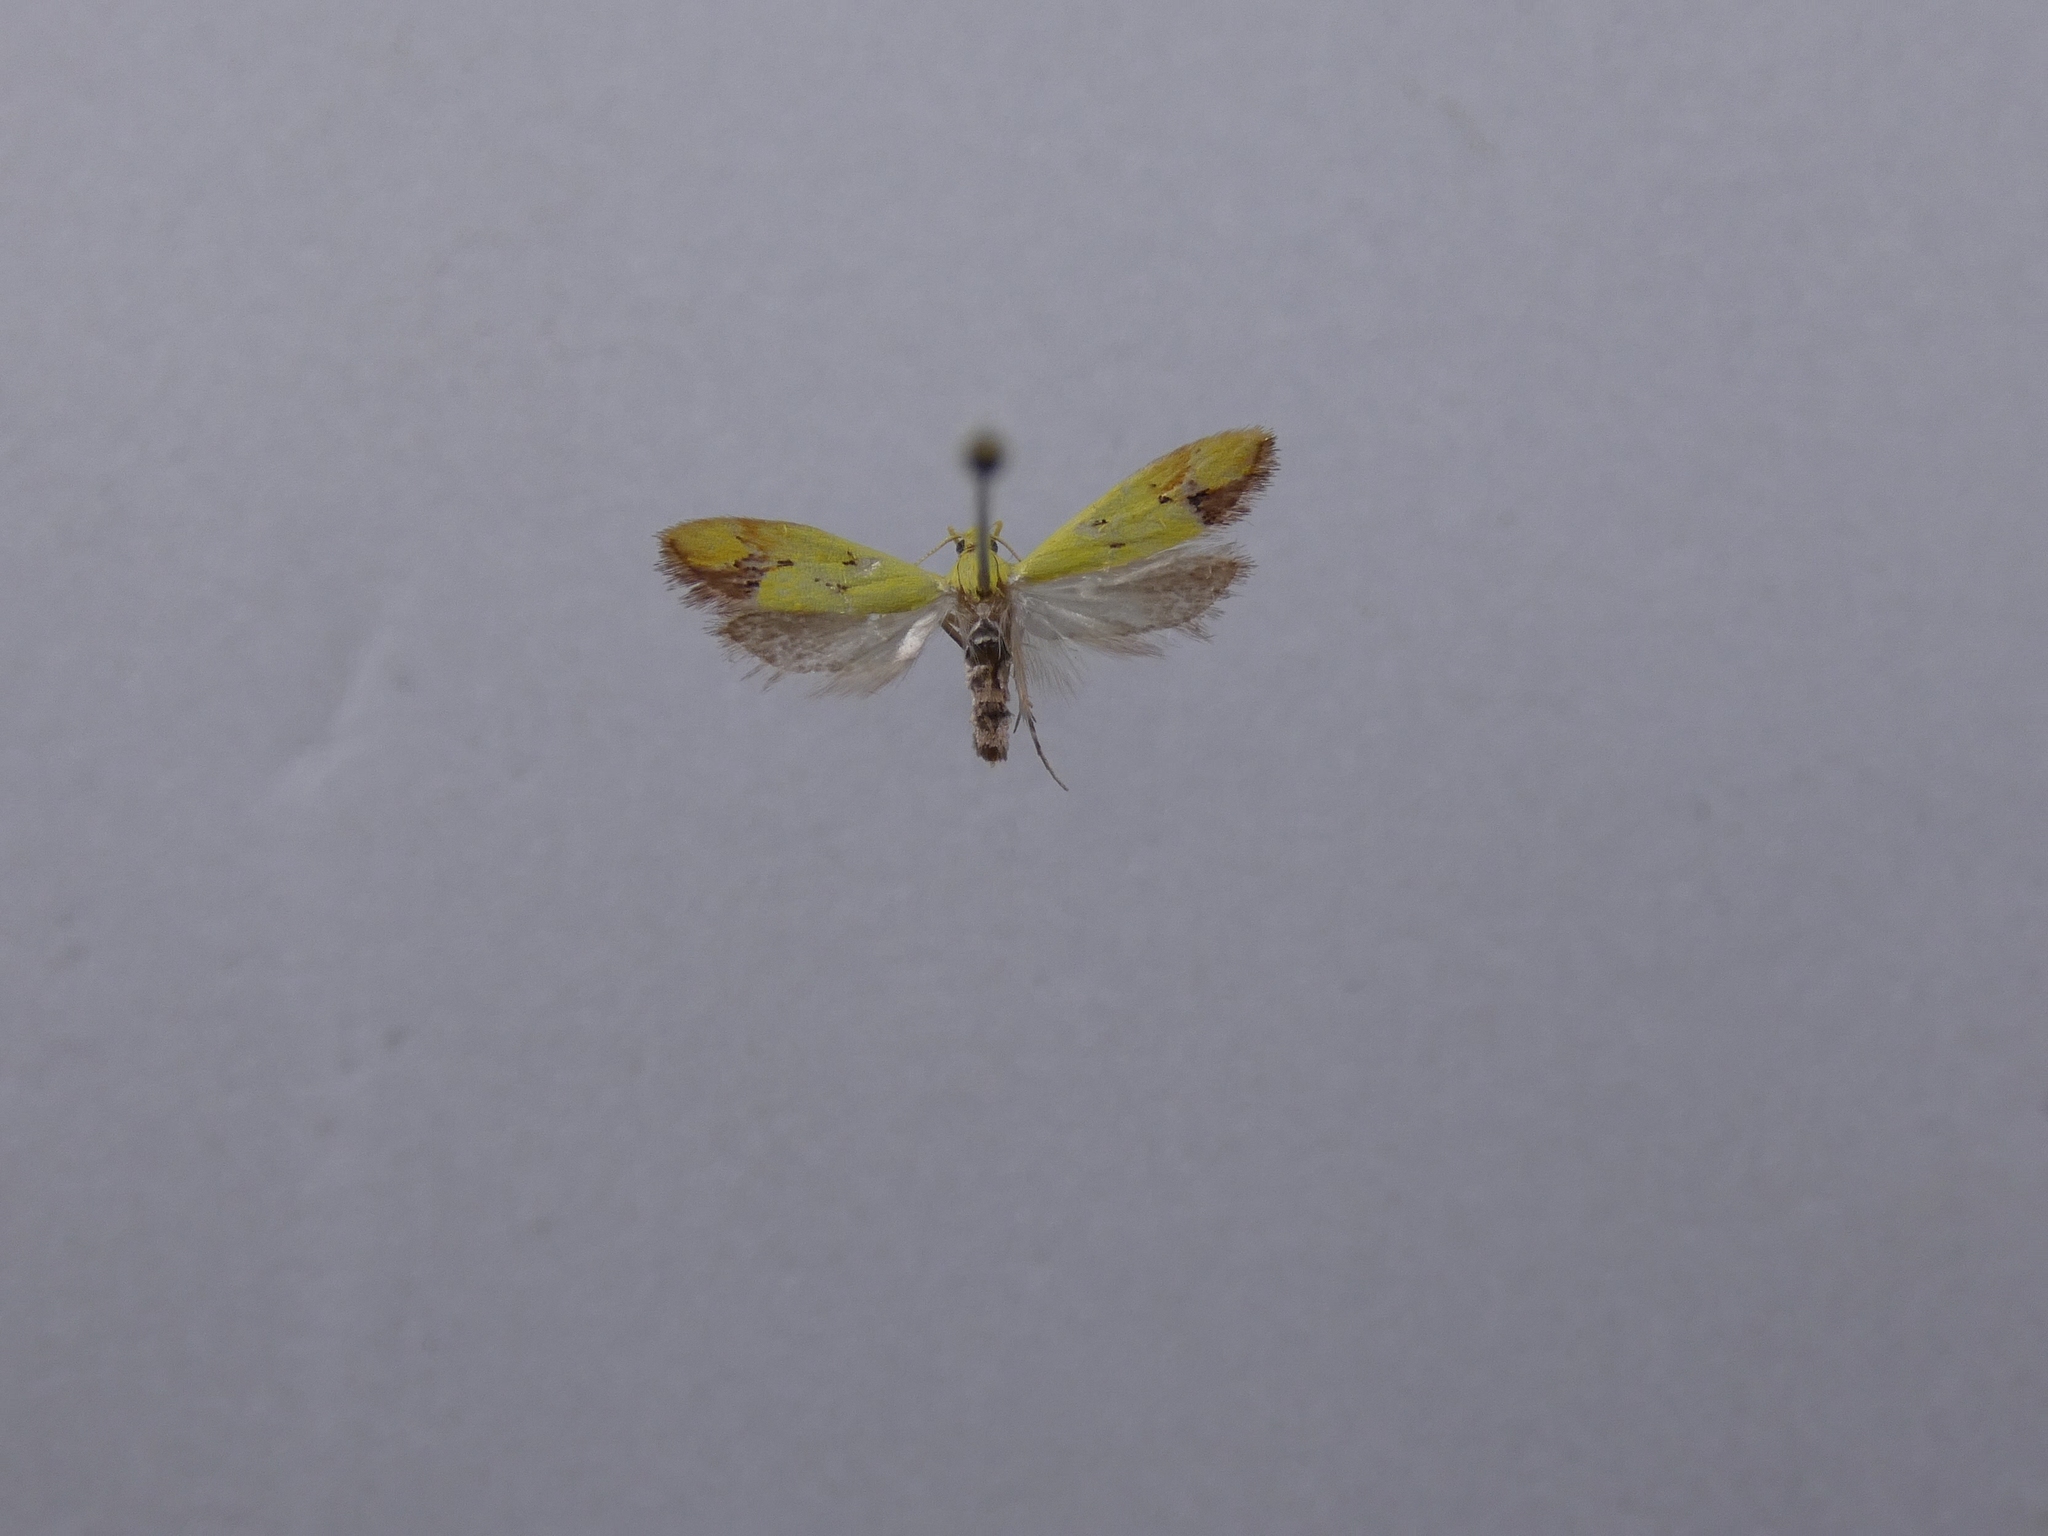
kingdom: Animalia
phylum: Arthropoda
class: Insecta
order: Lepidoptera
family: Oecophoridae
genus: Gymnobathra
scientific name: Gymnobathra flavidella
